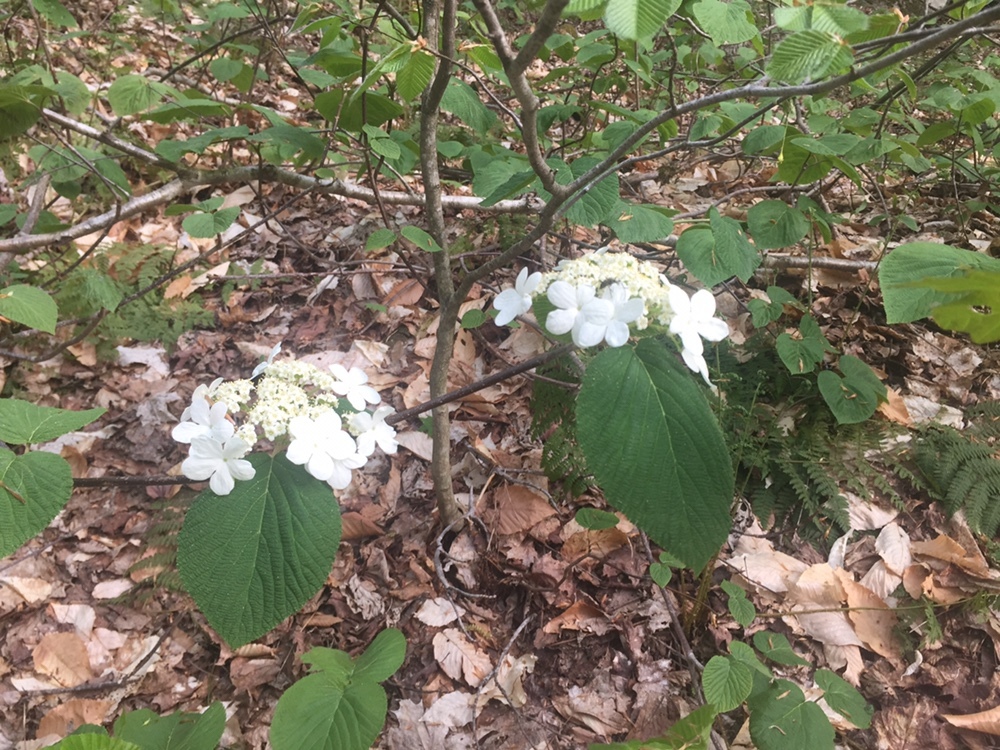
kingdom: Plantae
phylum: Tracheophyta
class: Magnoliopsida
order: Dipsacales
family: Viburnaceae
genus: Viburnum
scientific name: Viburnum lantanoides
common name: Hobblebush
